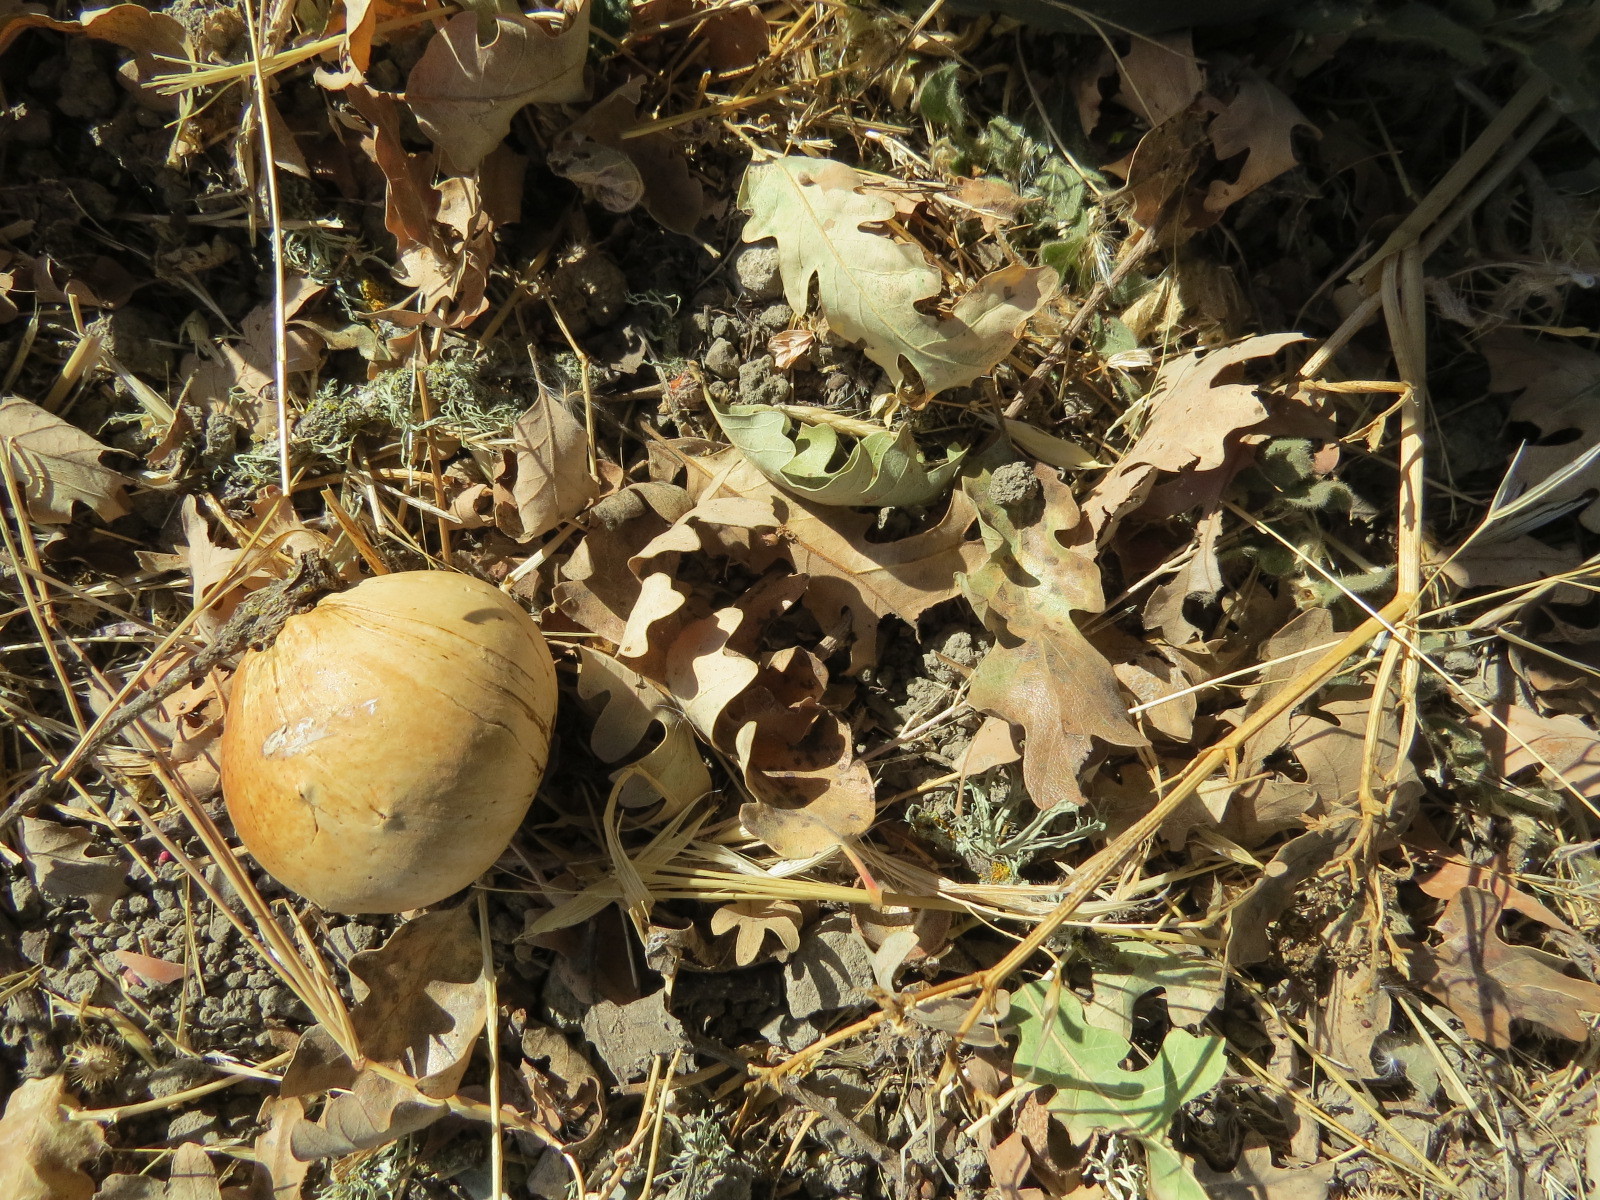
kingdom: Animalia
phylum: Arthropoda
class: Insecta
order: Hymenoptera
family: Cynipidae
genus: Andricus
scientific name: Andricus quercuscalifornicus
